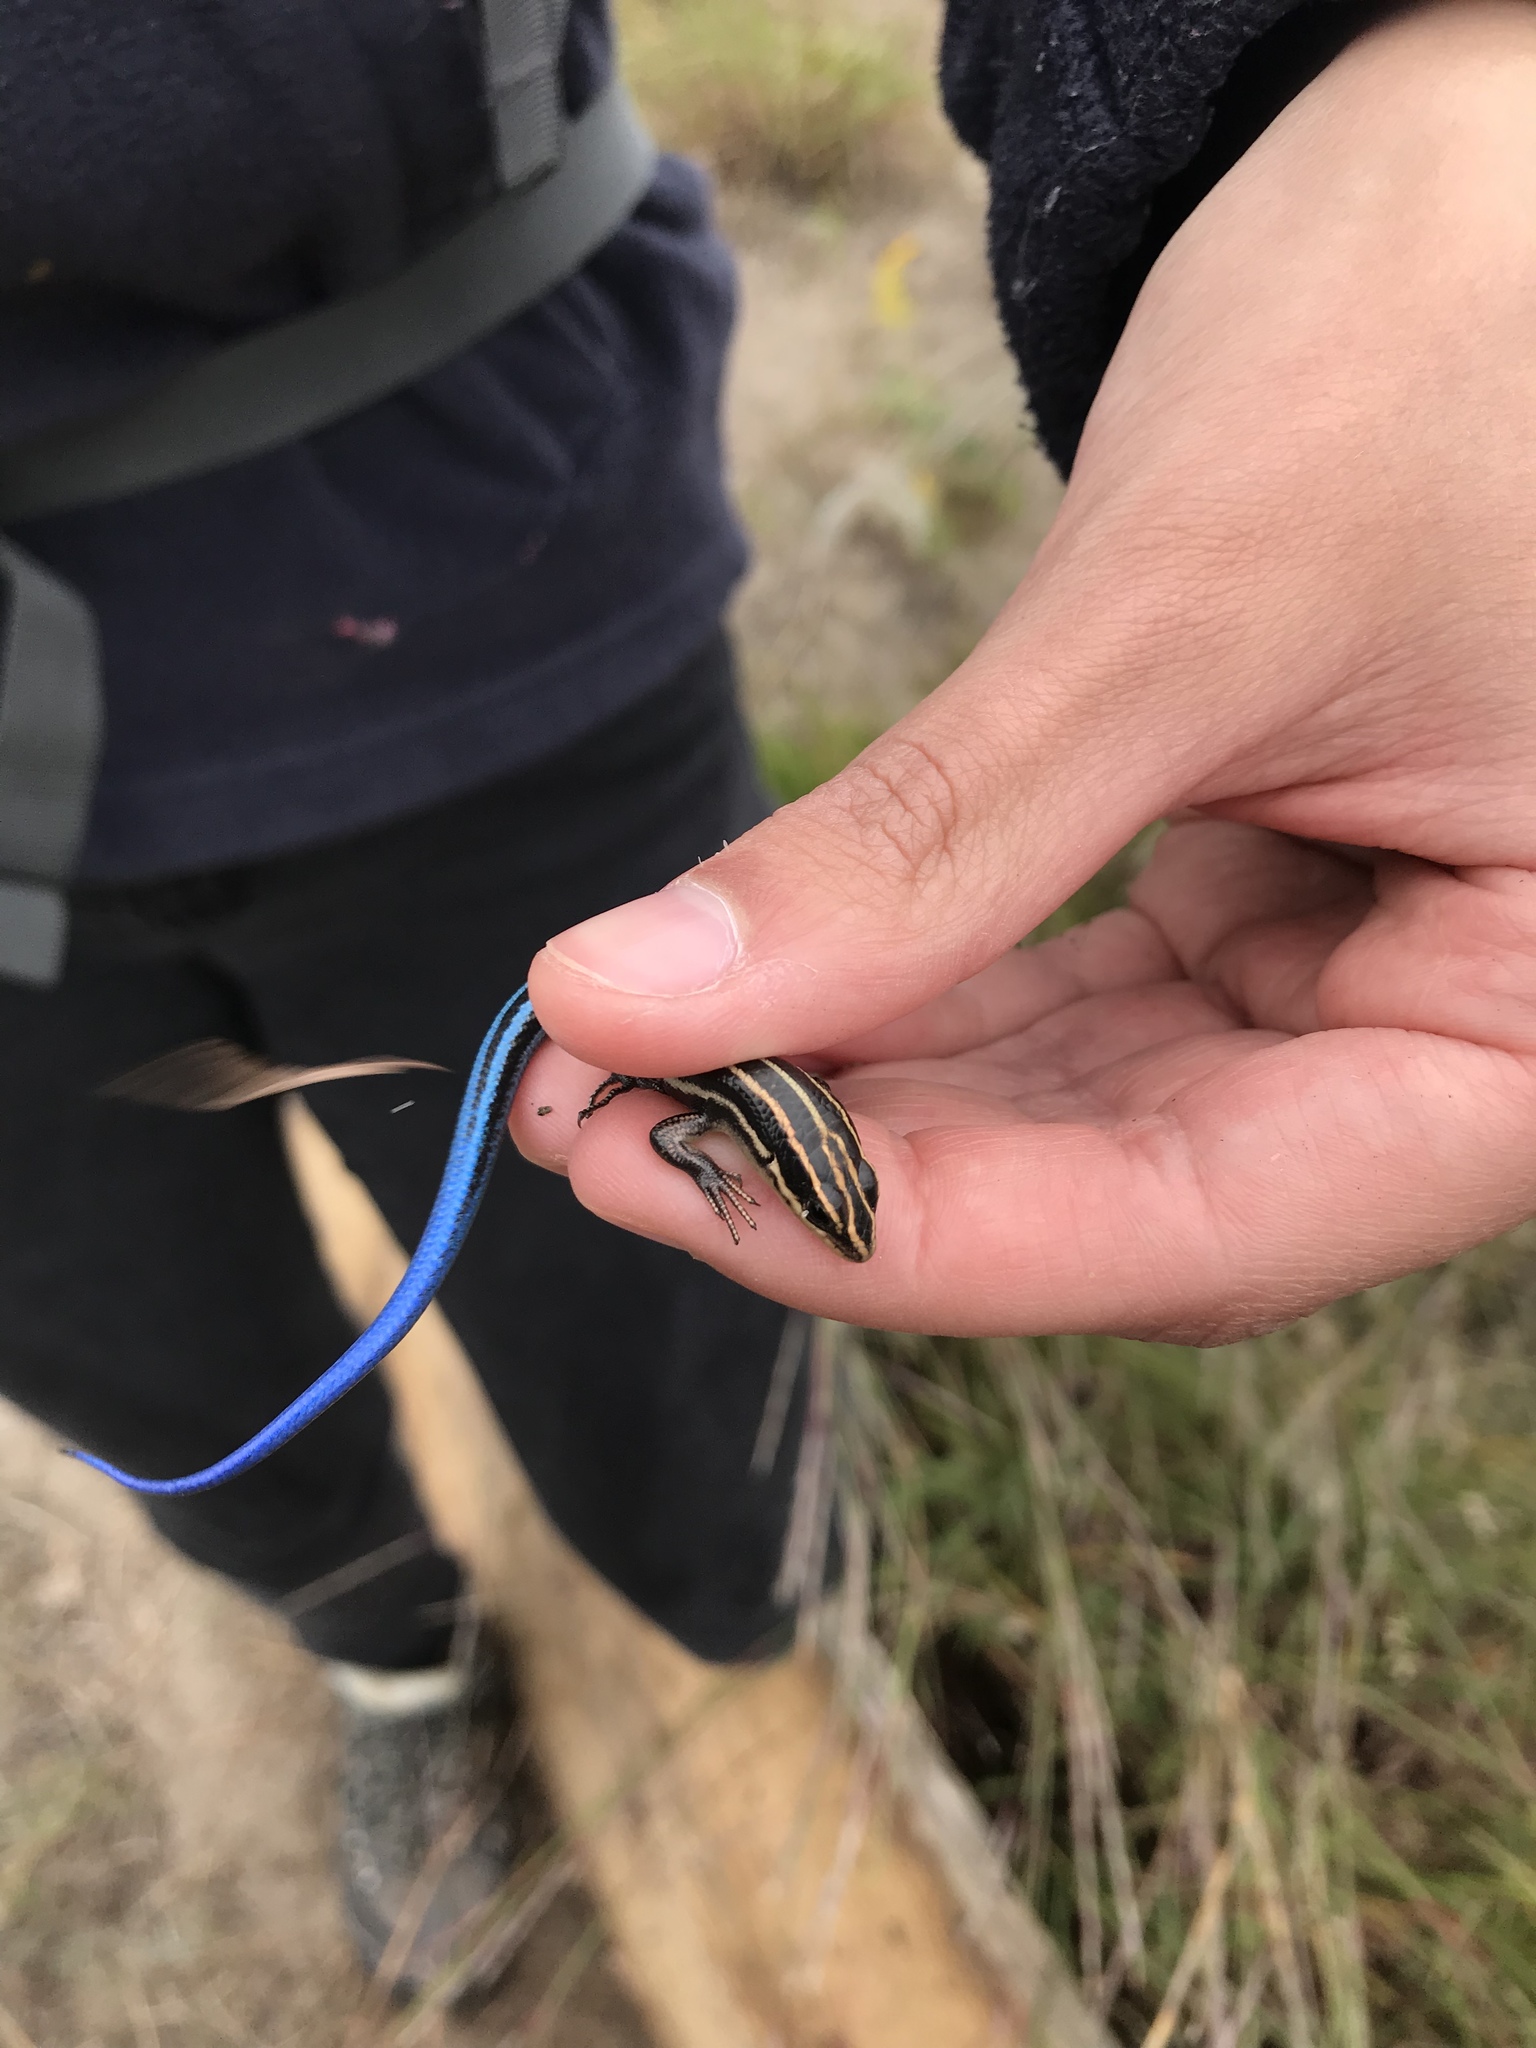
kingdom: Animalia
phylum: Chordata
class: Squamata
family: Scincidae
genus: Plestiodon
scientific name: Plestiodon fasciatus
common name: Five-lined skink
